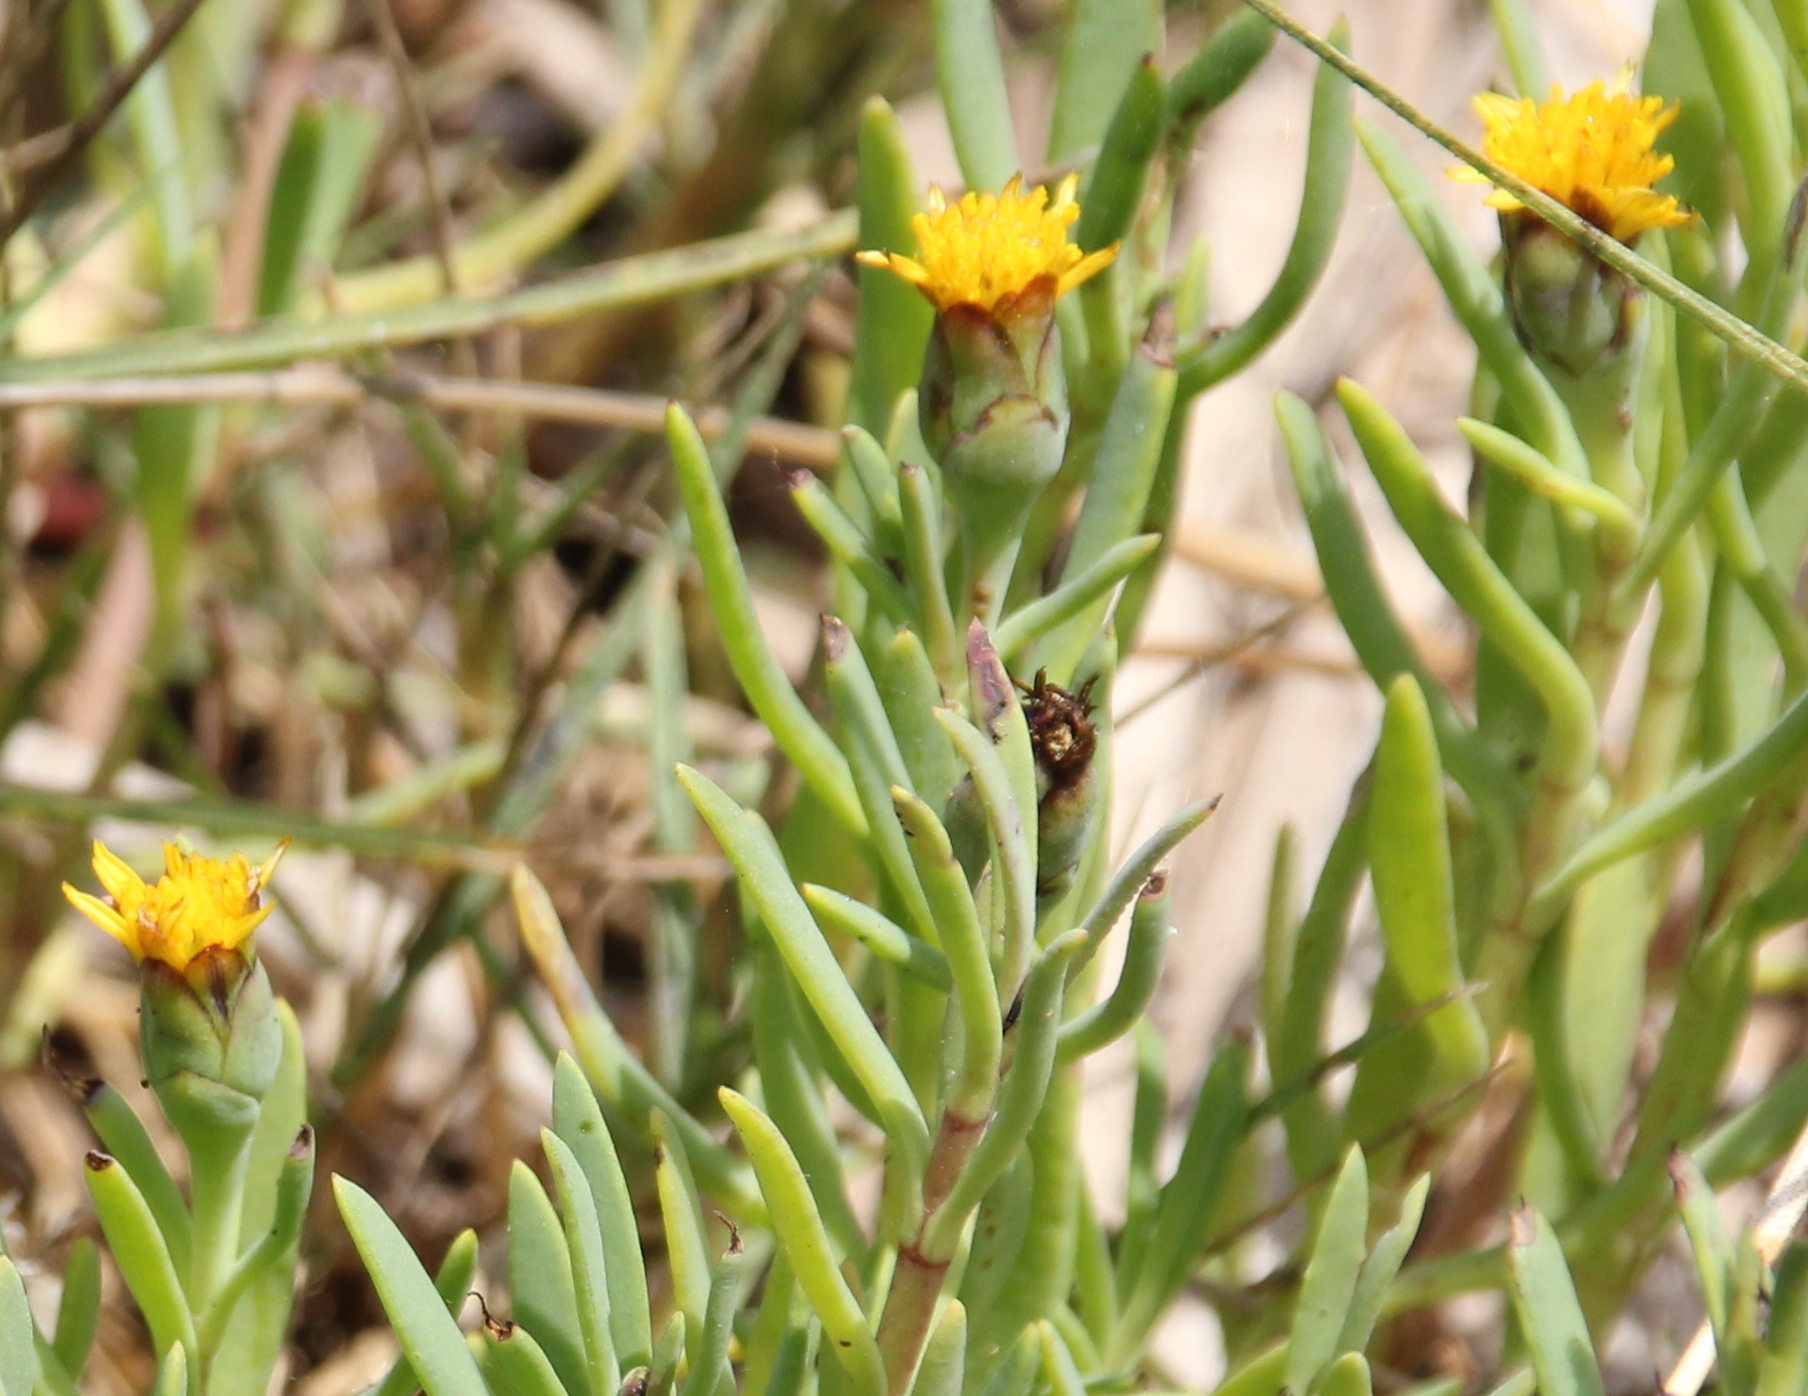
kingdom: Plantae
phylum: Tracheophyta
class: Magnoliopsida
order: Asterales
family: Asteraceae
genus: Jaumea
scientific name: Jaumea carnosa
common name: Fleshy jaumea
